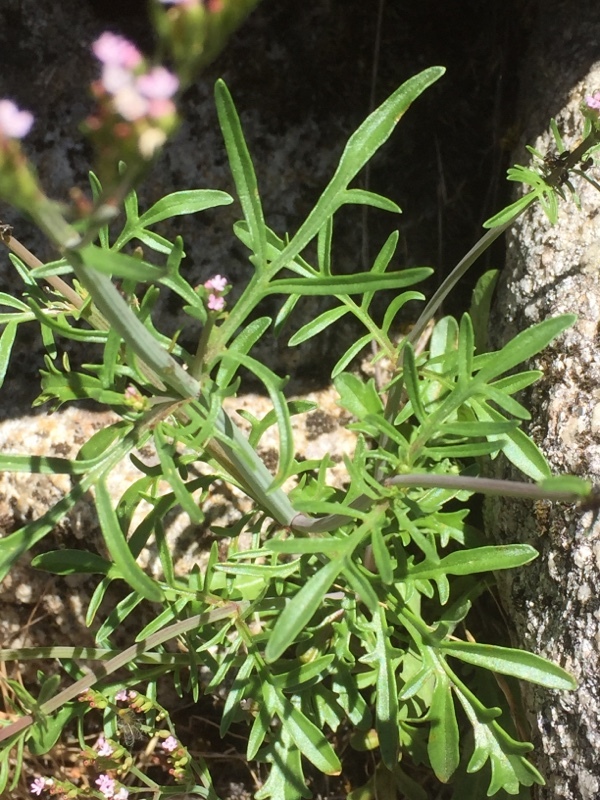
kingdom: Plantae
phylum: Tracheophyta
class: Magnoliopsida
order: Dipsacales
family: Caprifoliaceae
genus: Centranthus
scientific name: Centranthus calcitrapae
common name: Annual valerian
